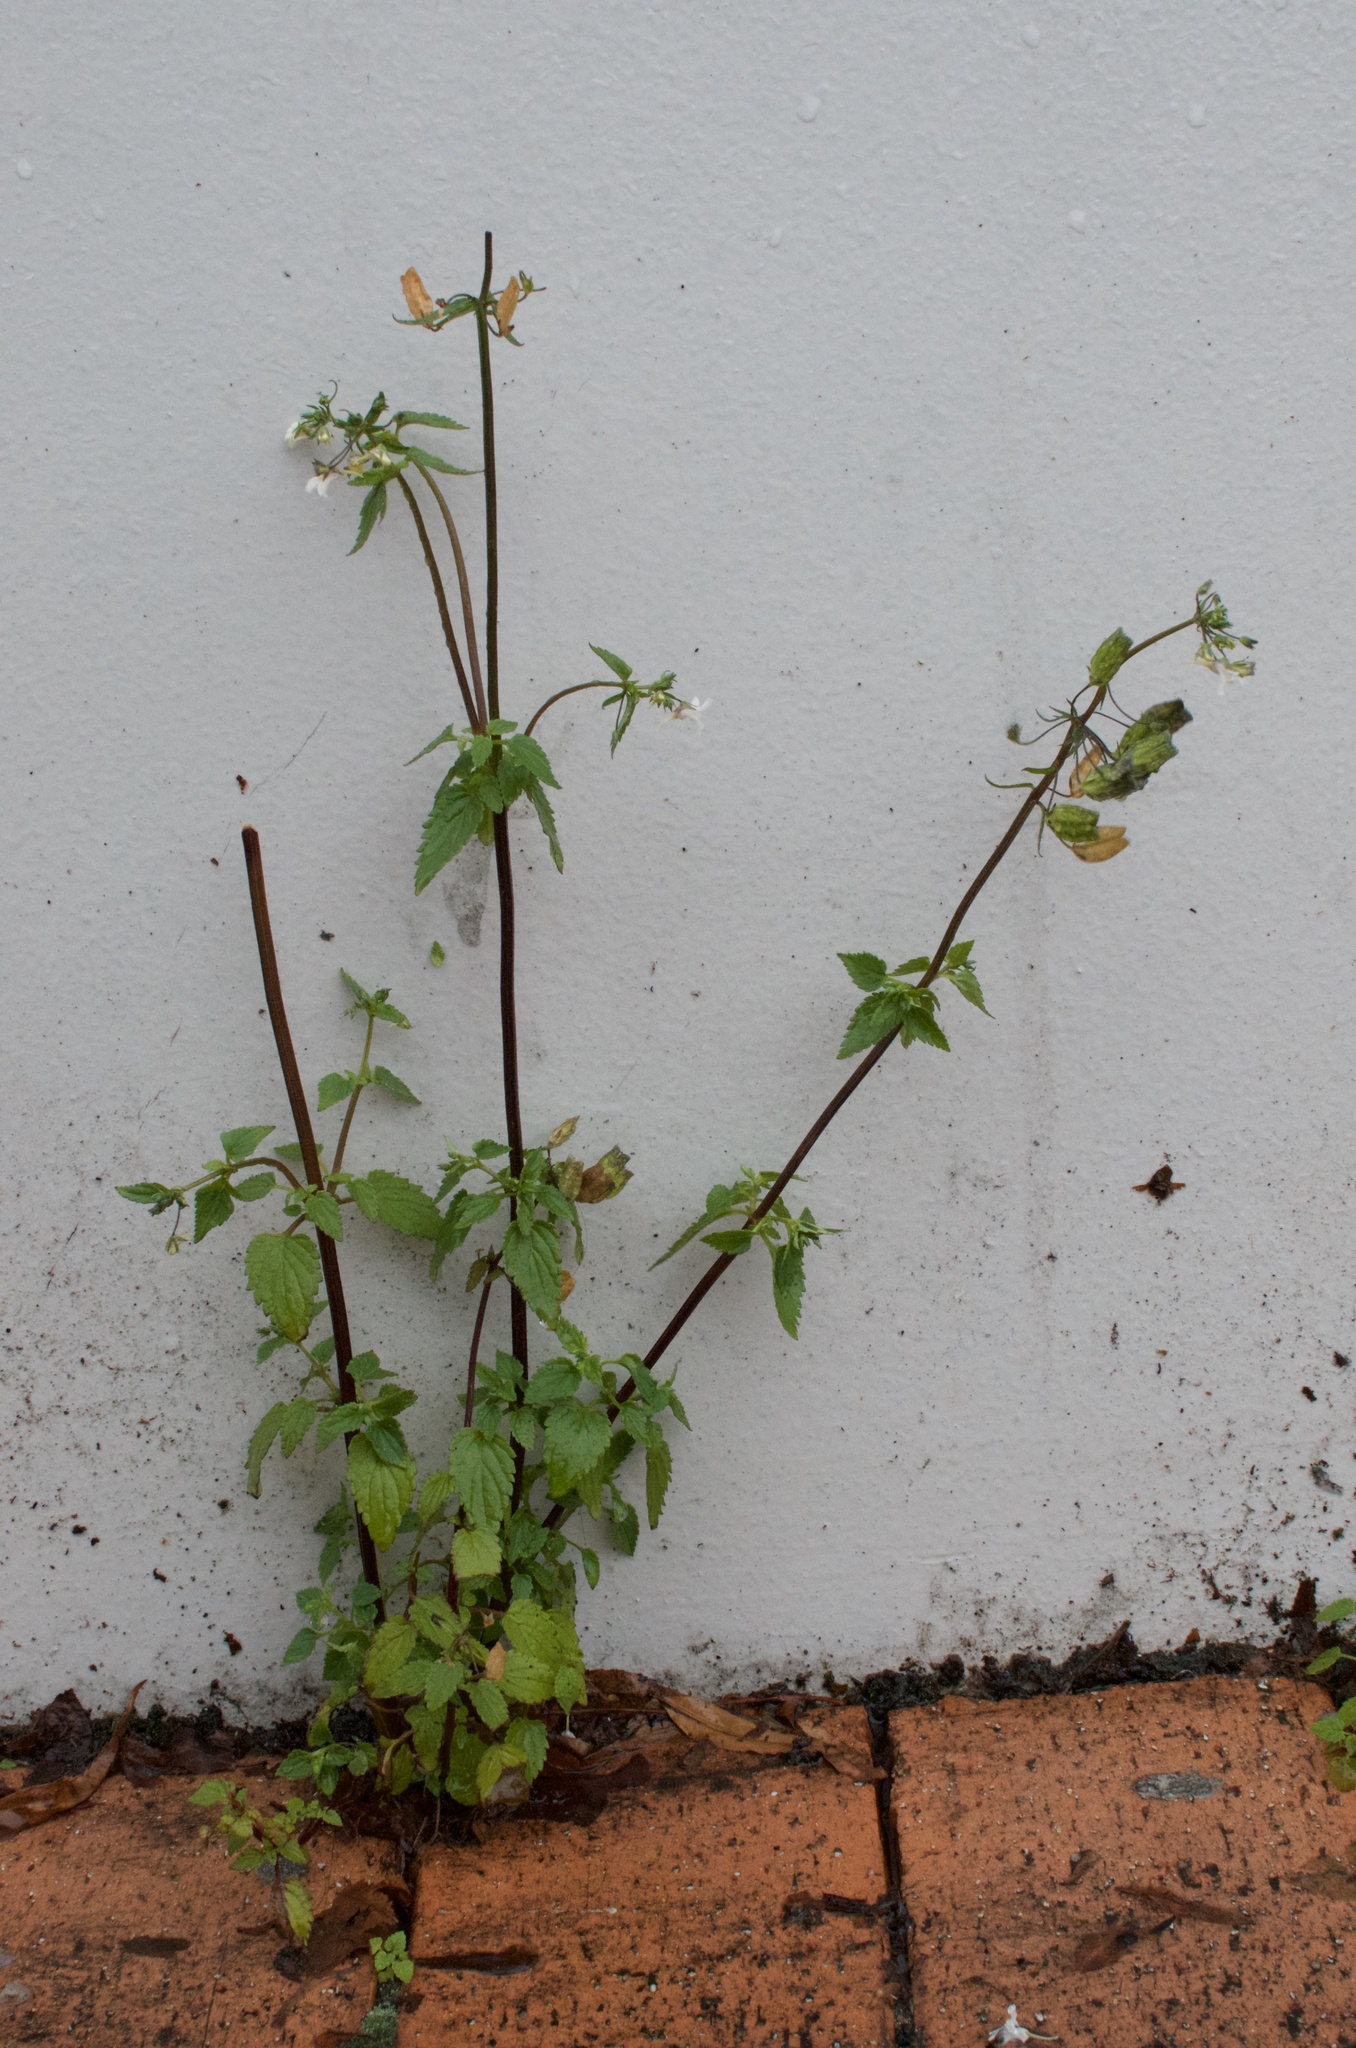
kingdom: Plantae
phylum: Tracheophyta
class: Magnoliopsida
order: Lamiales
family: Scrophulariaceae
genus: Nemesia
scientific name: Nemesia floribunda
